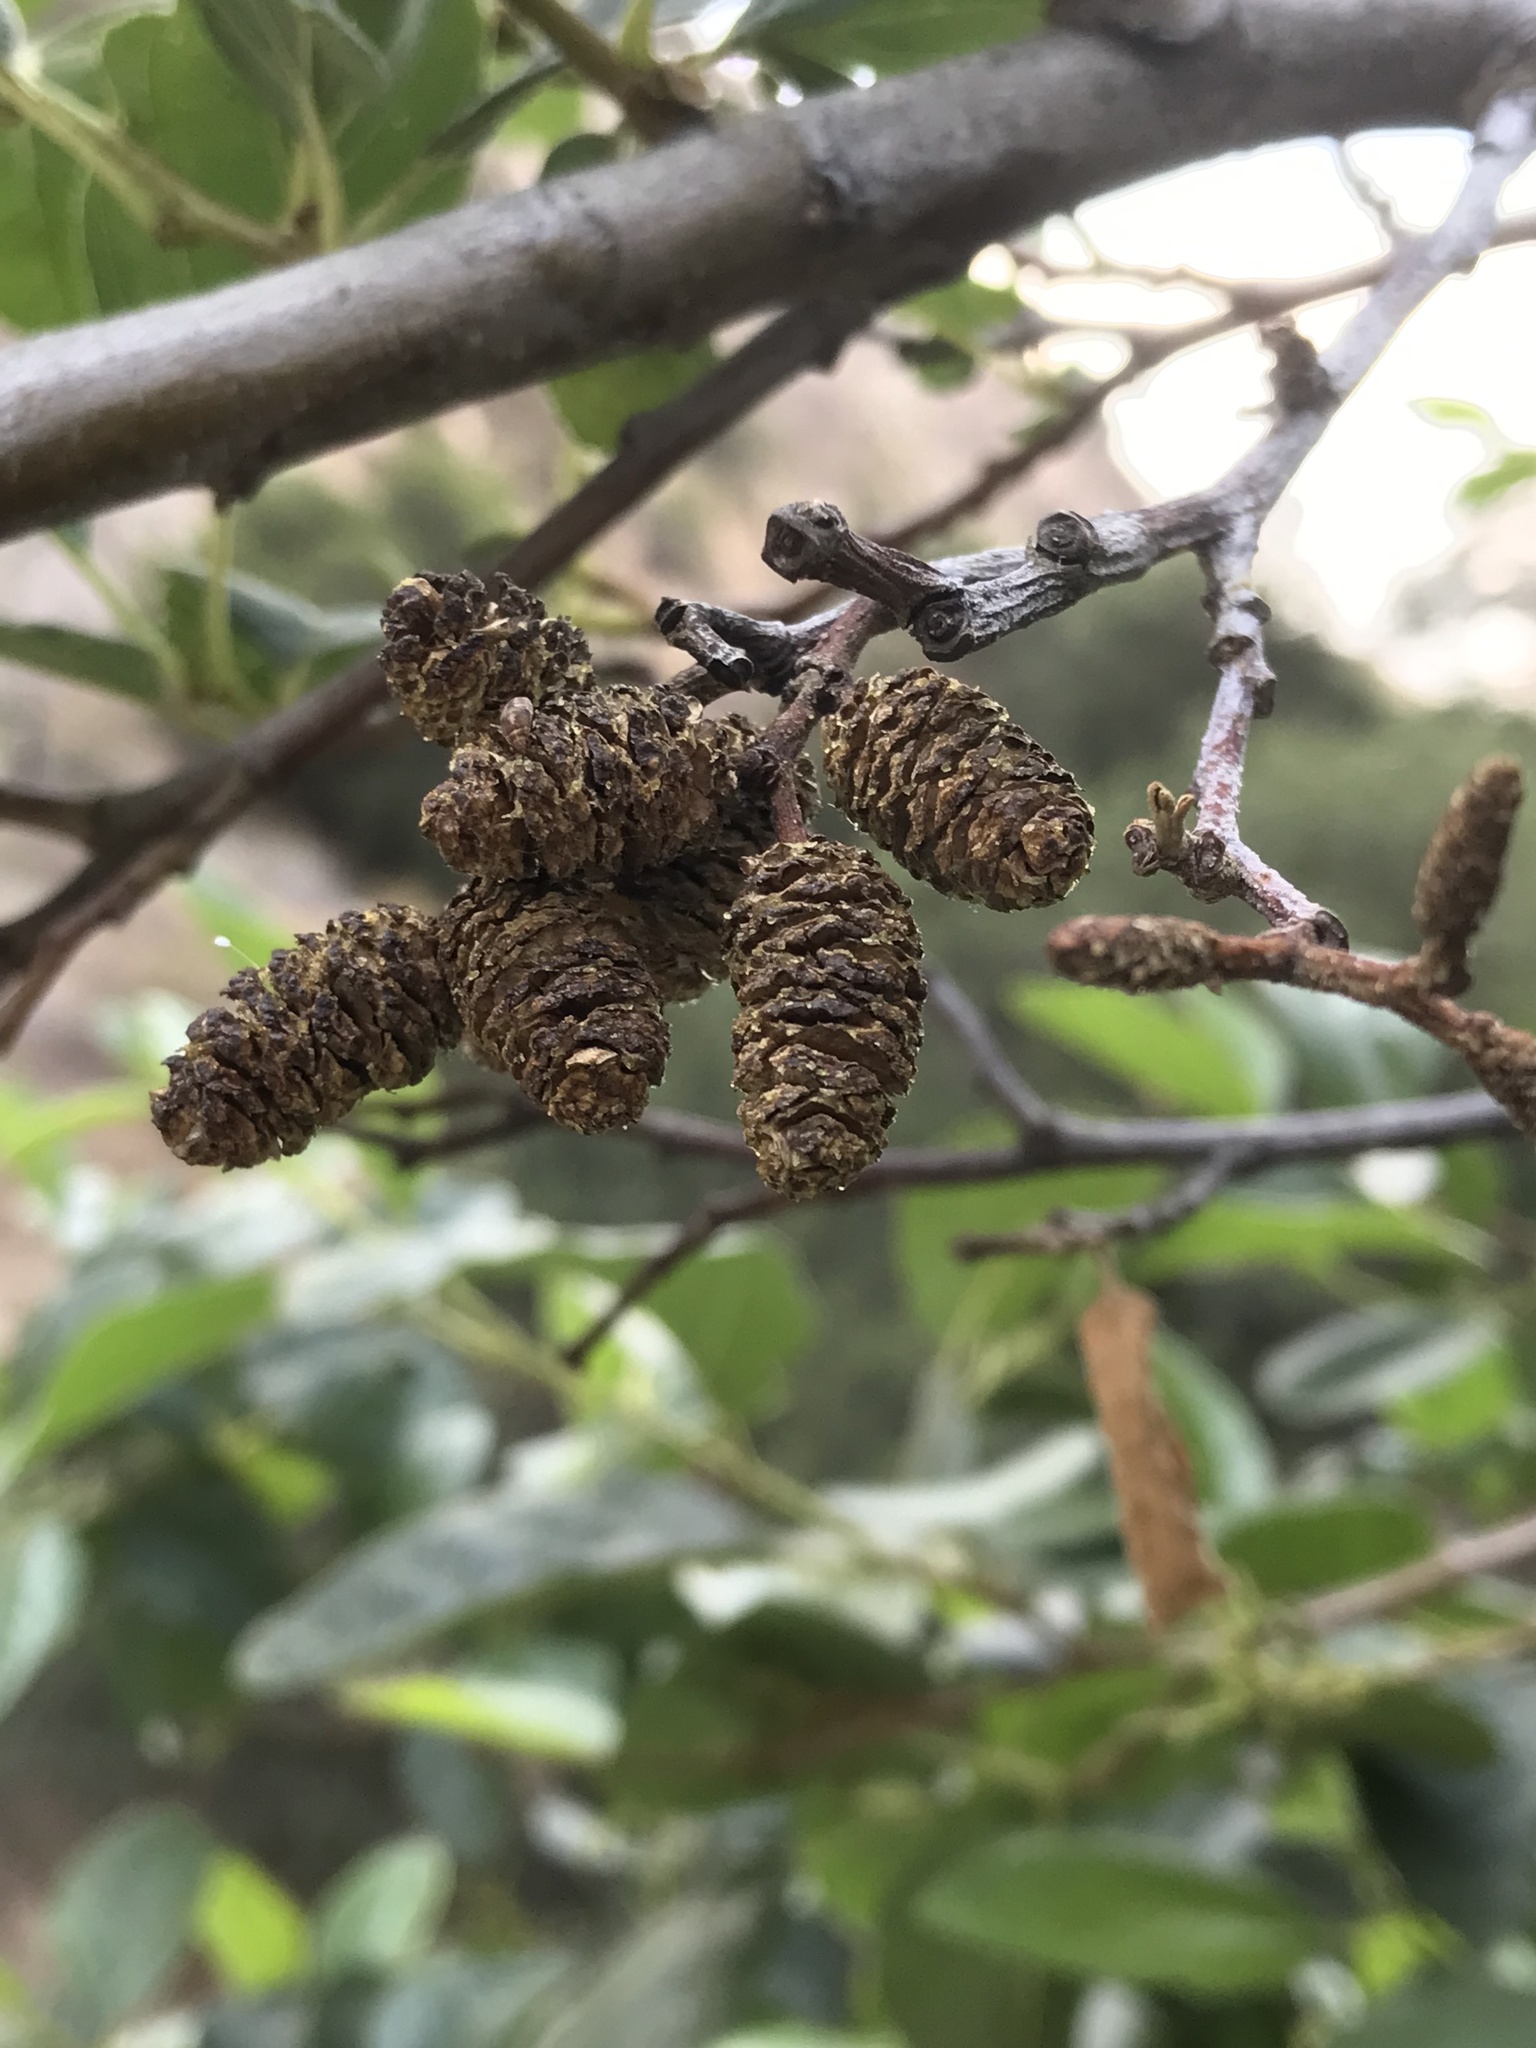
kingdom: Plantae
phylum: Tracheophyta
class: Magnoliopsida
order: Fagales
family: Betulaceae
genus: Alnus
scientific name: Alnus rhombifolia
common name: California alder
